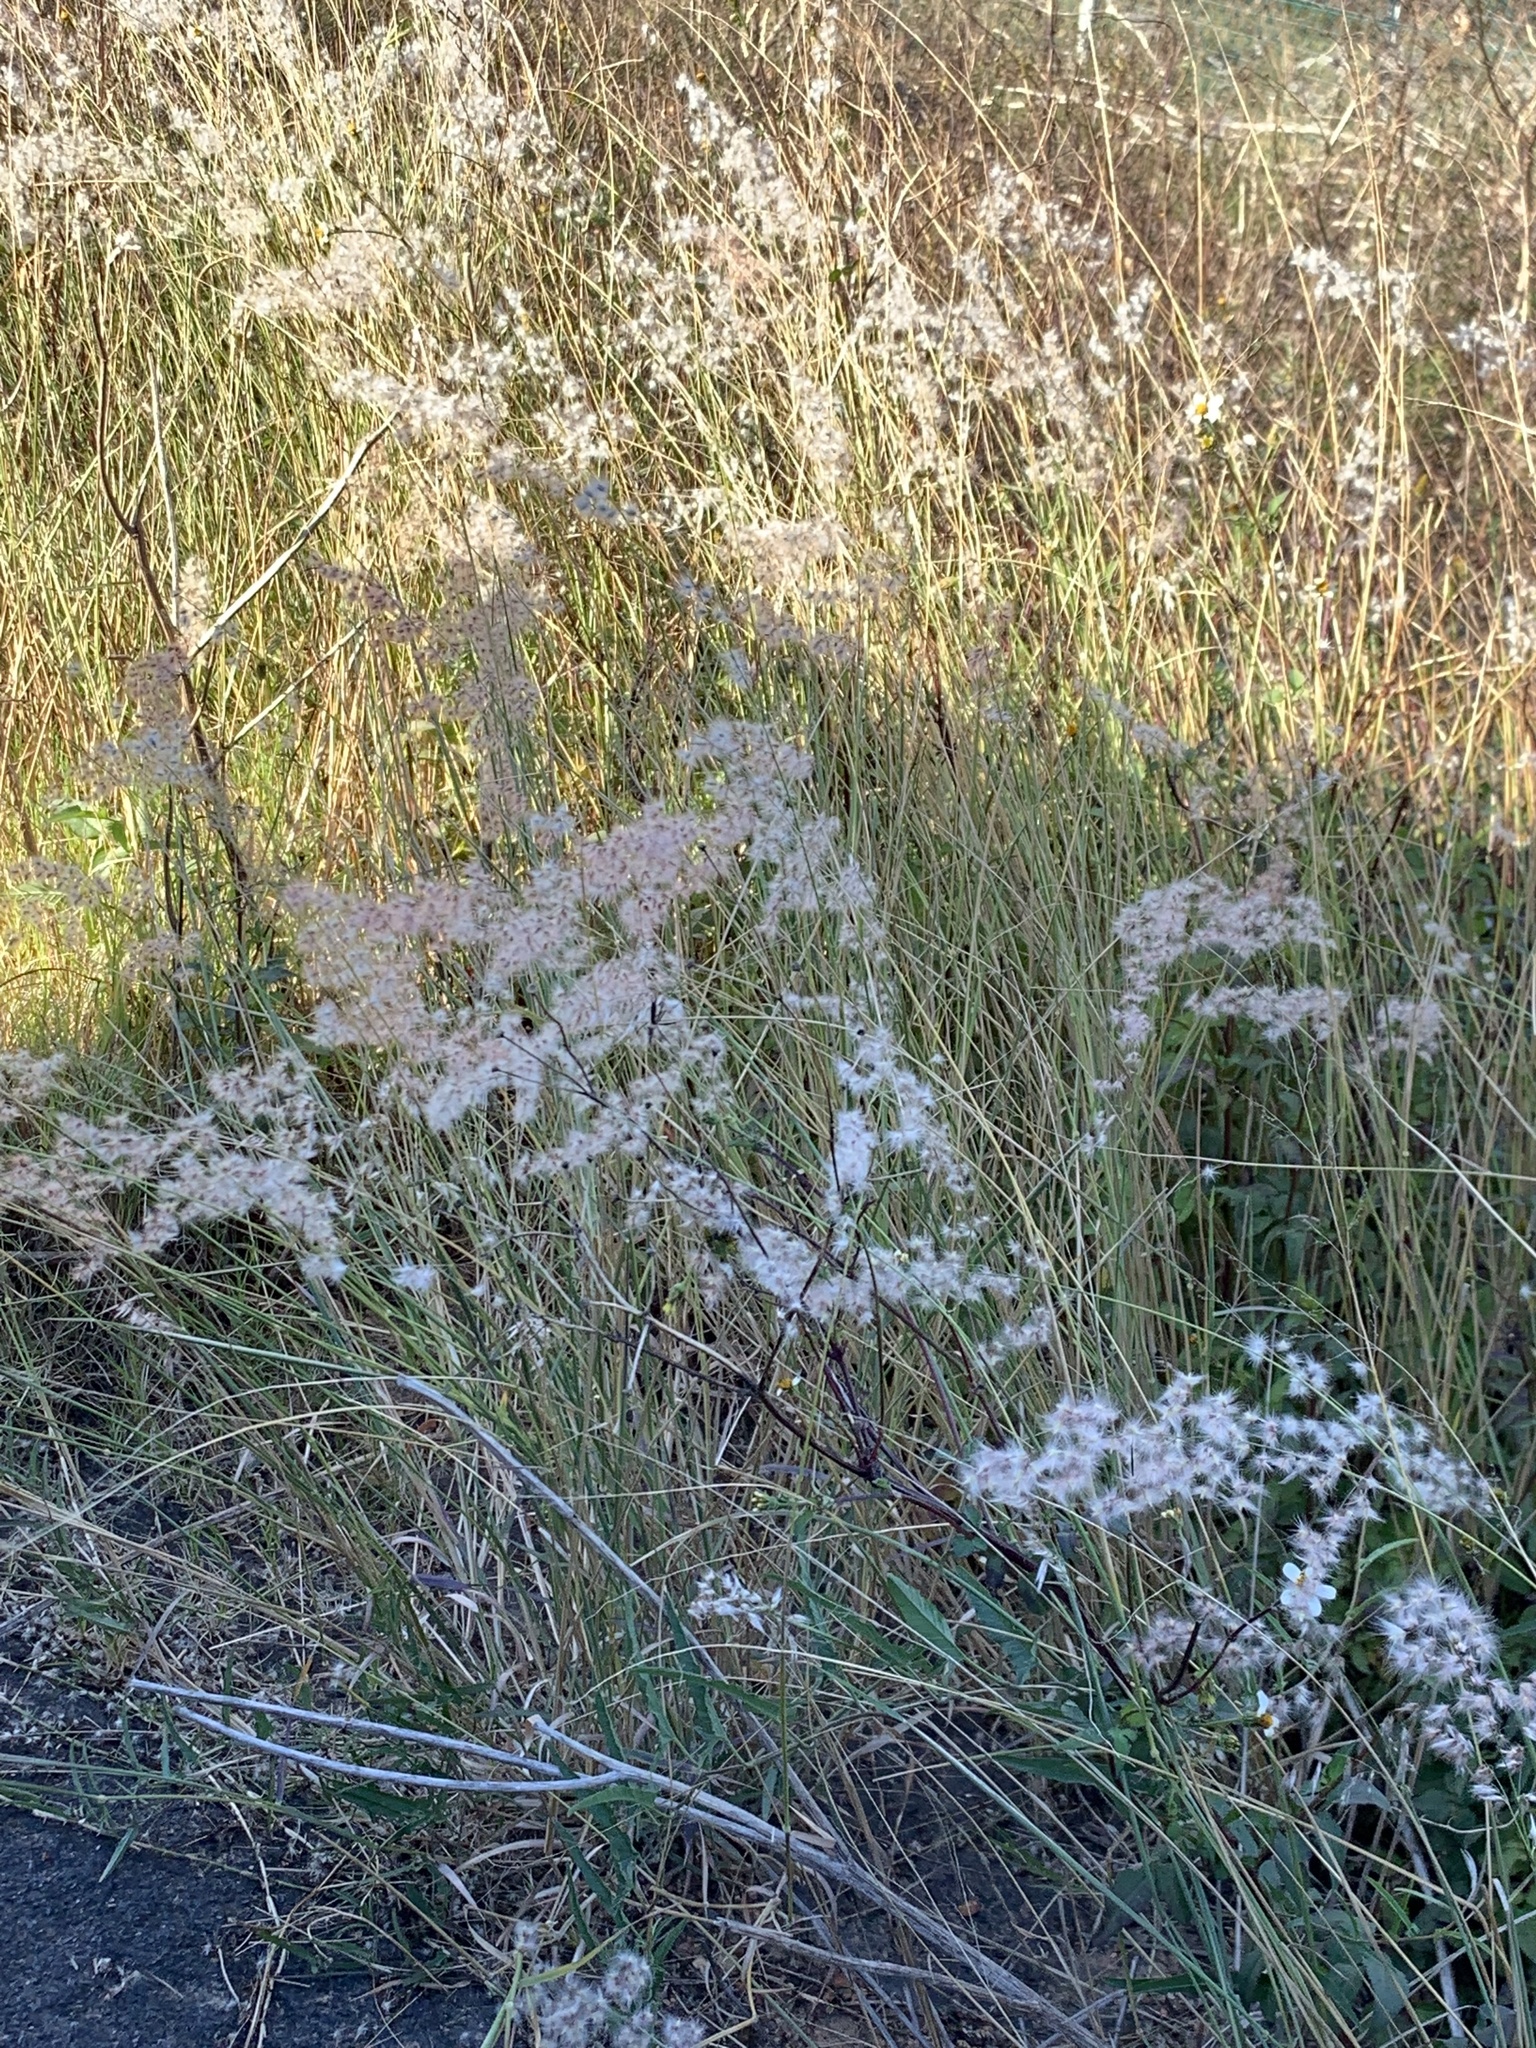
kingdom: Plantae
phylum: Tracheophyta
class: Liliopsida
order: Poales
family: Poaceae
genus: Melinis
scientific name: Melinis repens
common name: Rose natal grass
